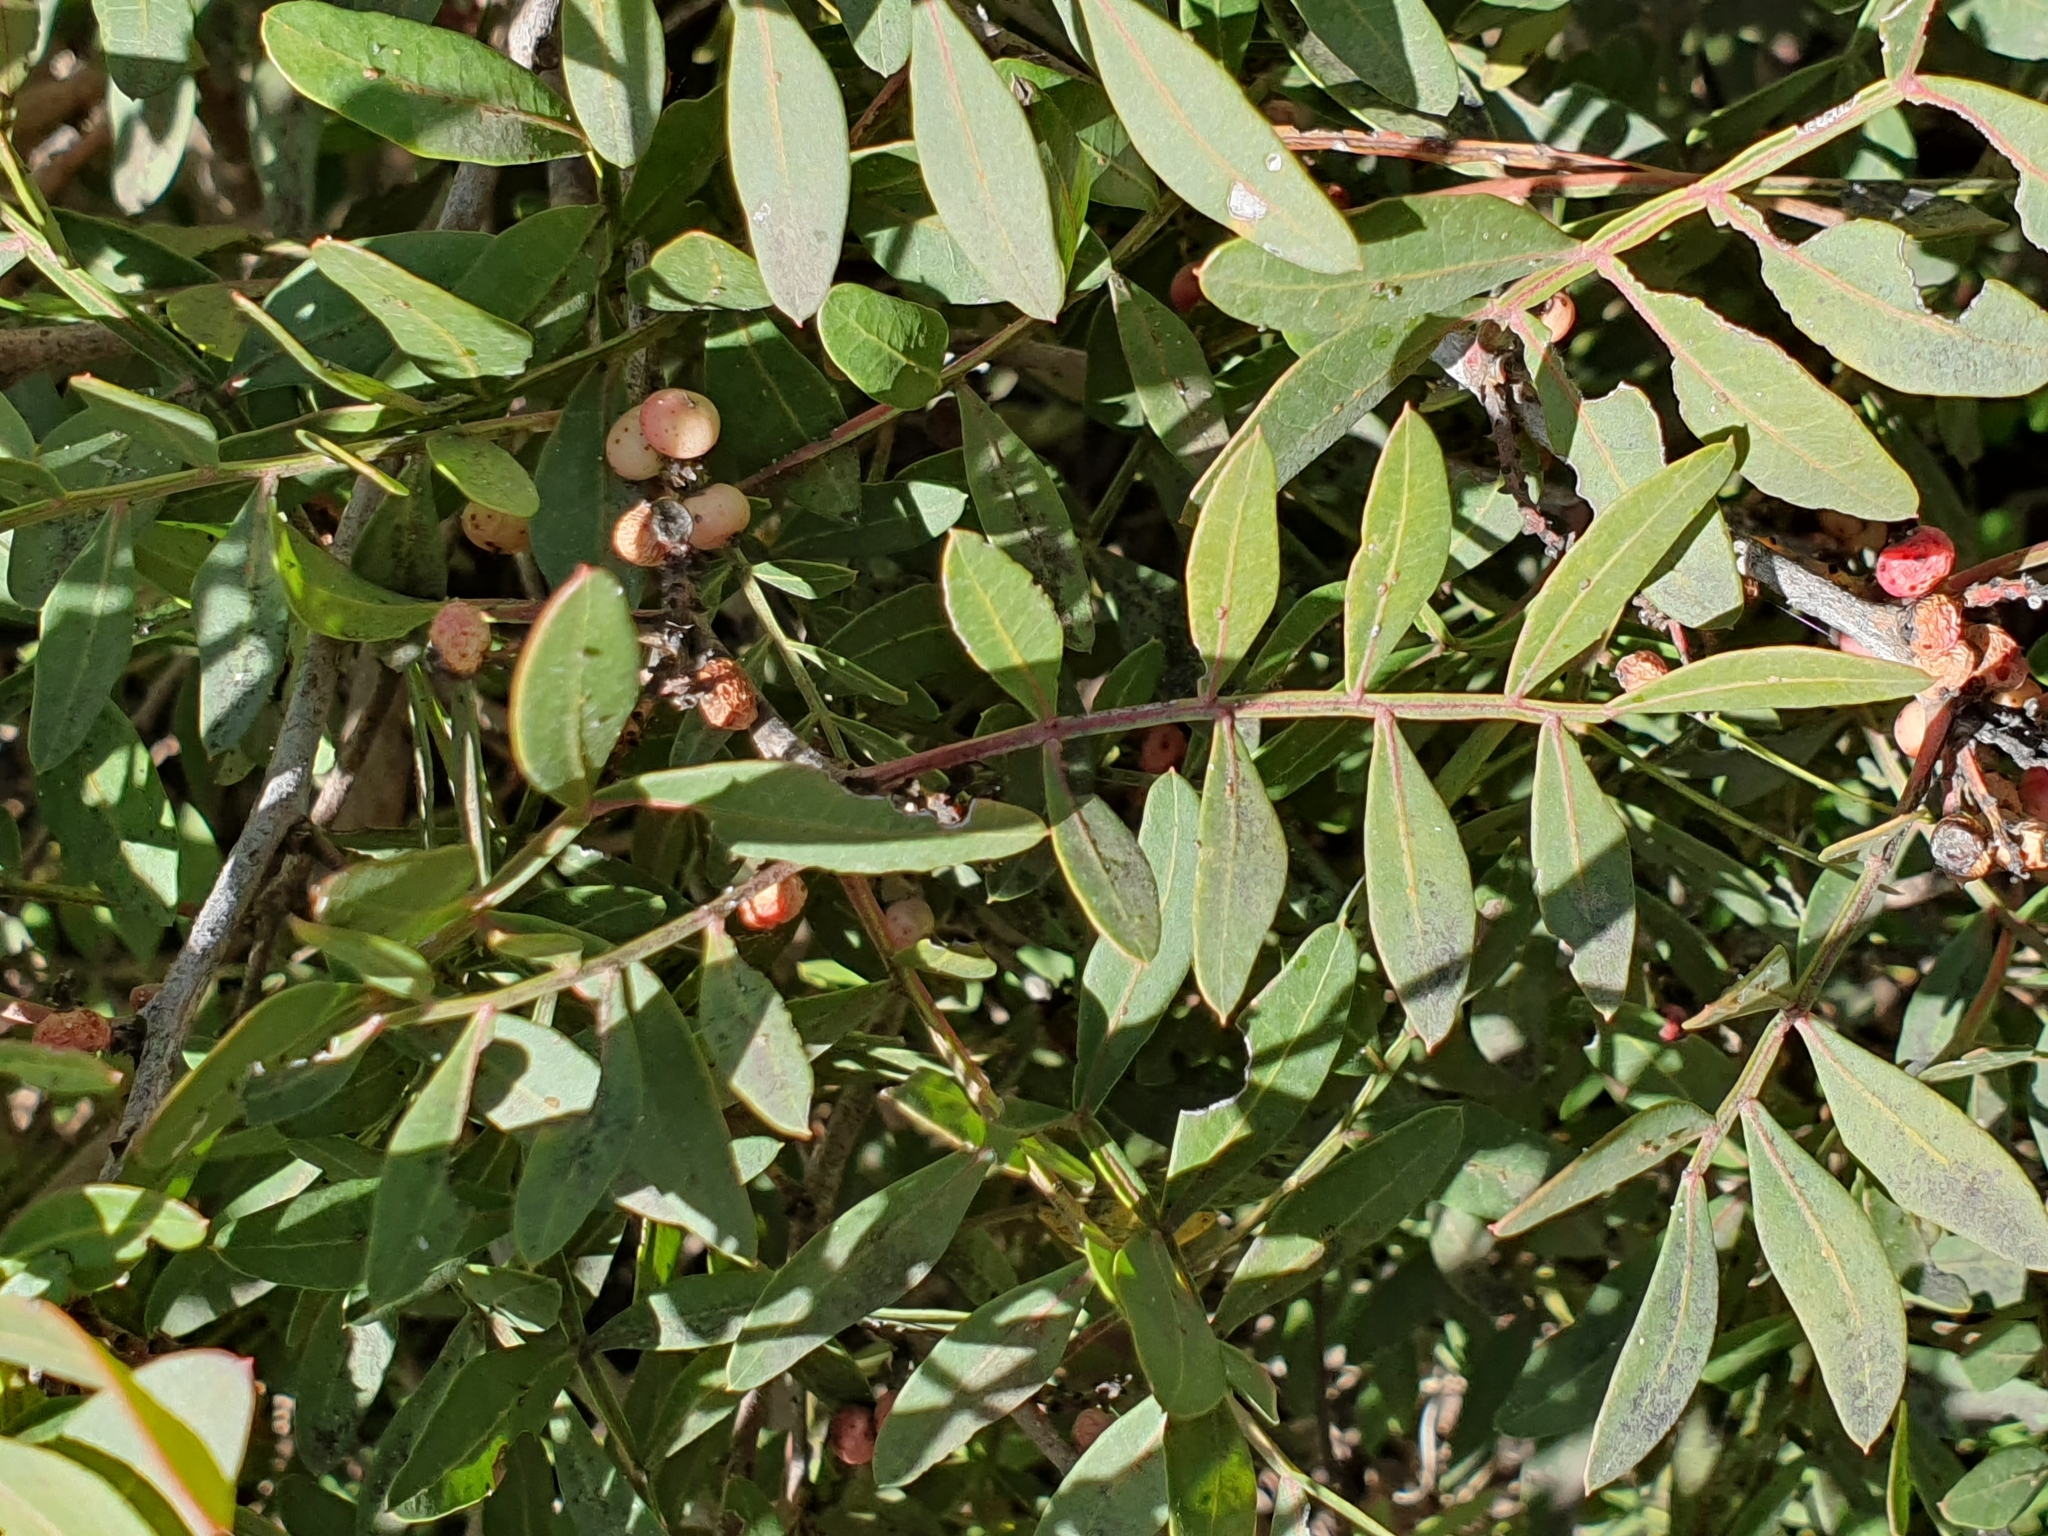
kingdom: Plantae
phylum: Tracheophyta
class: Magnoliopsida
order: Sapindales
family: Anacardiaceae
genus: Pistacia
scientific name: Pistacia lentiscus
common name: Lentisk
